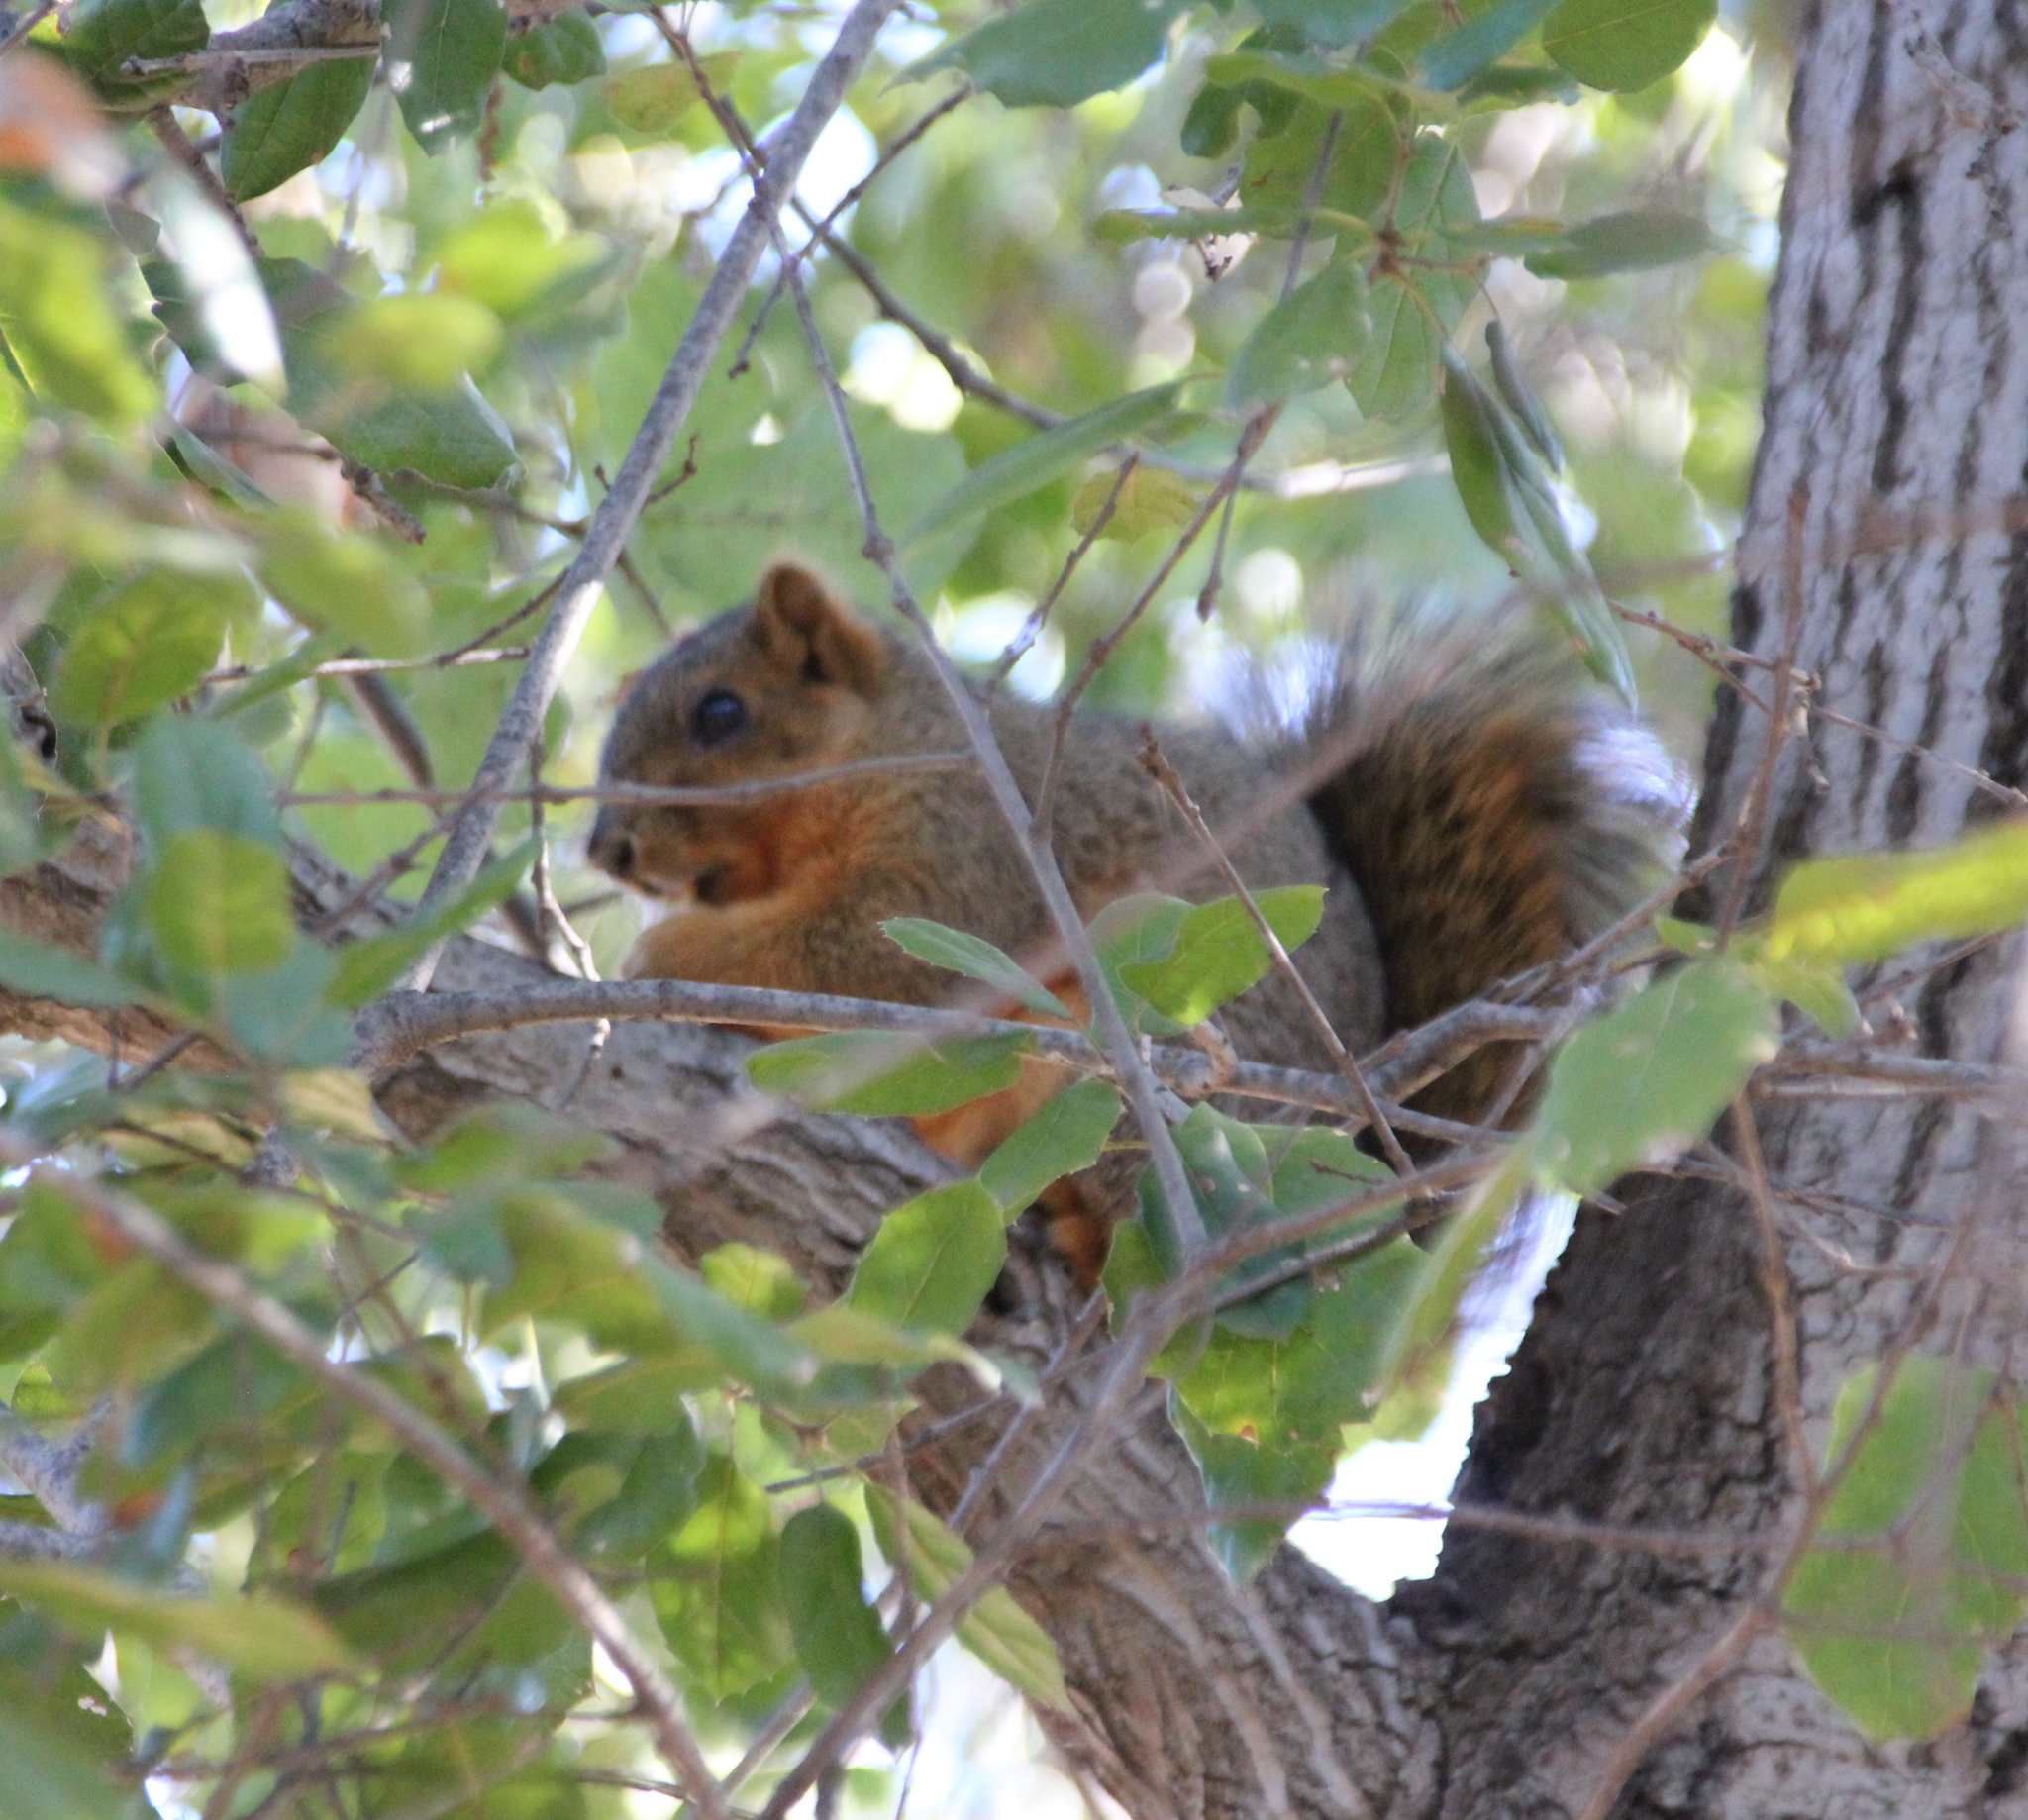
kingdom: Animalia
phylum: Chordata
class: Mammalia
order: Rodentia
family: Sciuridae
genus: Sciurus
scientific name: Sciurus niger
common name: Fox squirrel
